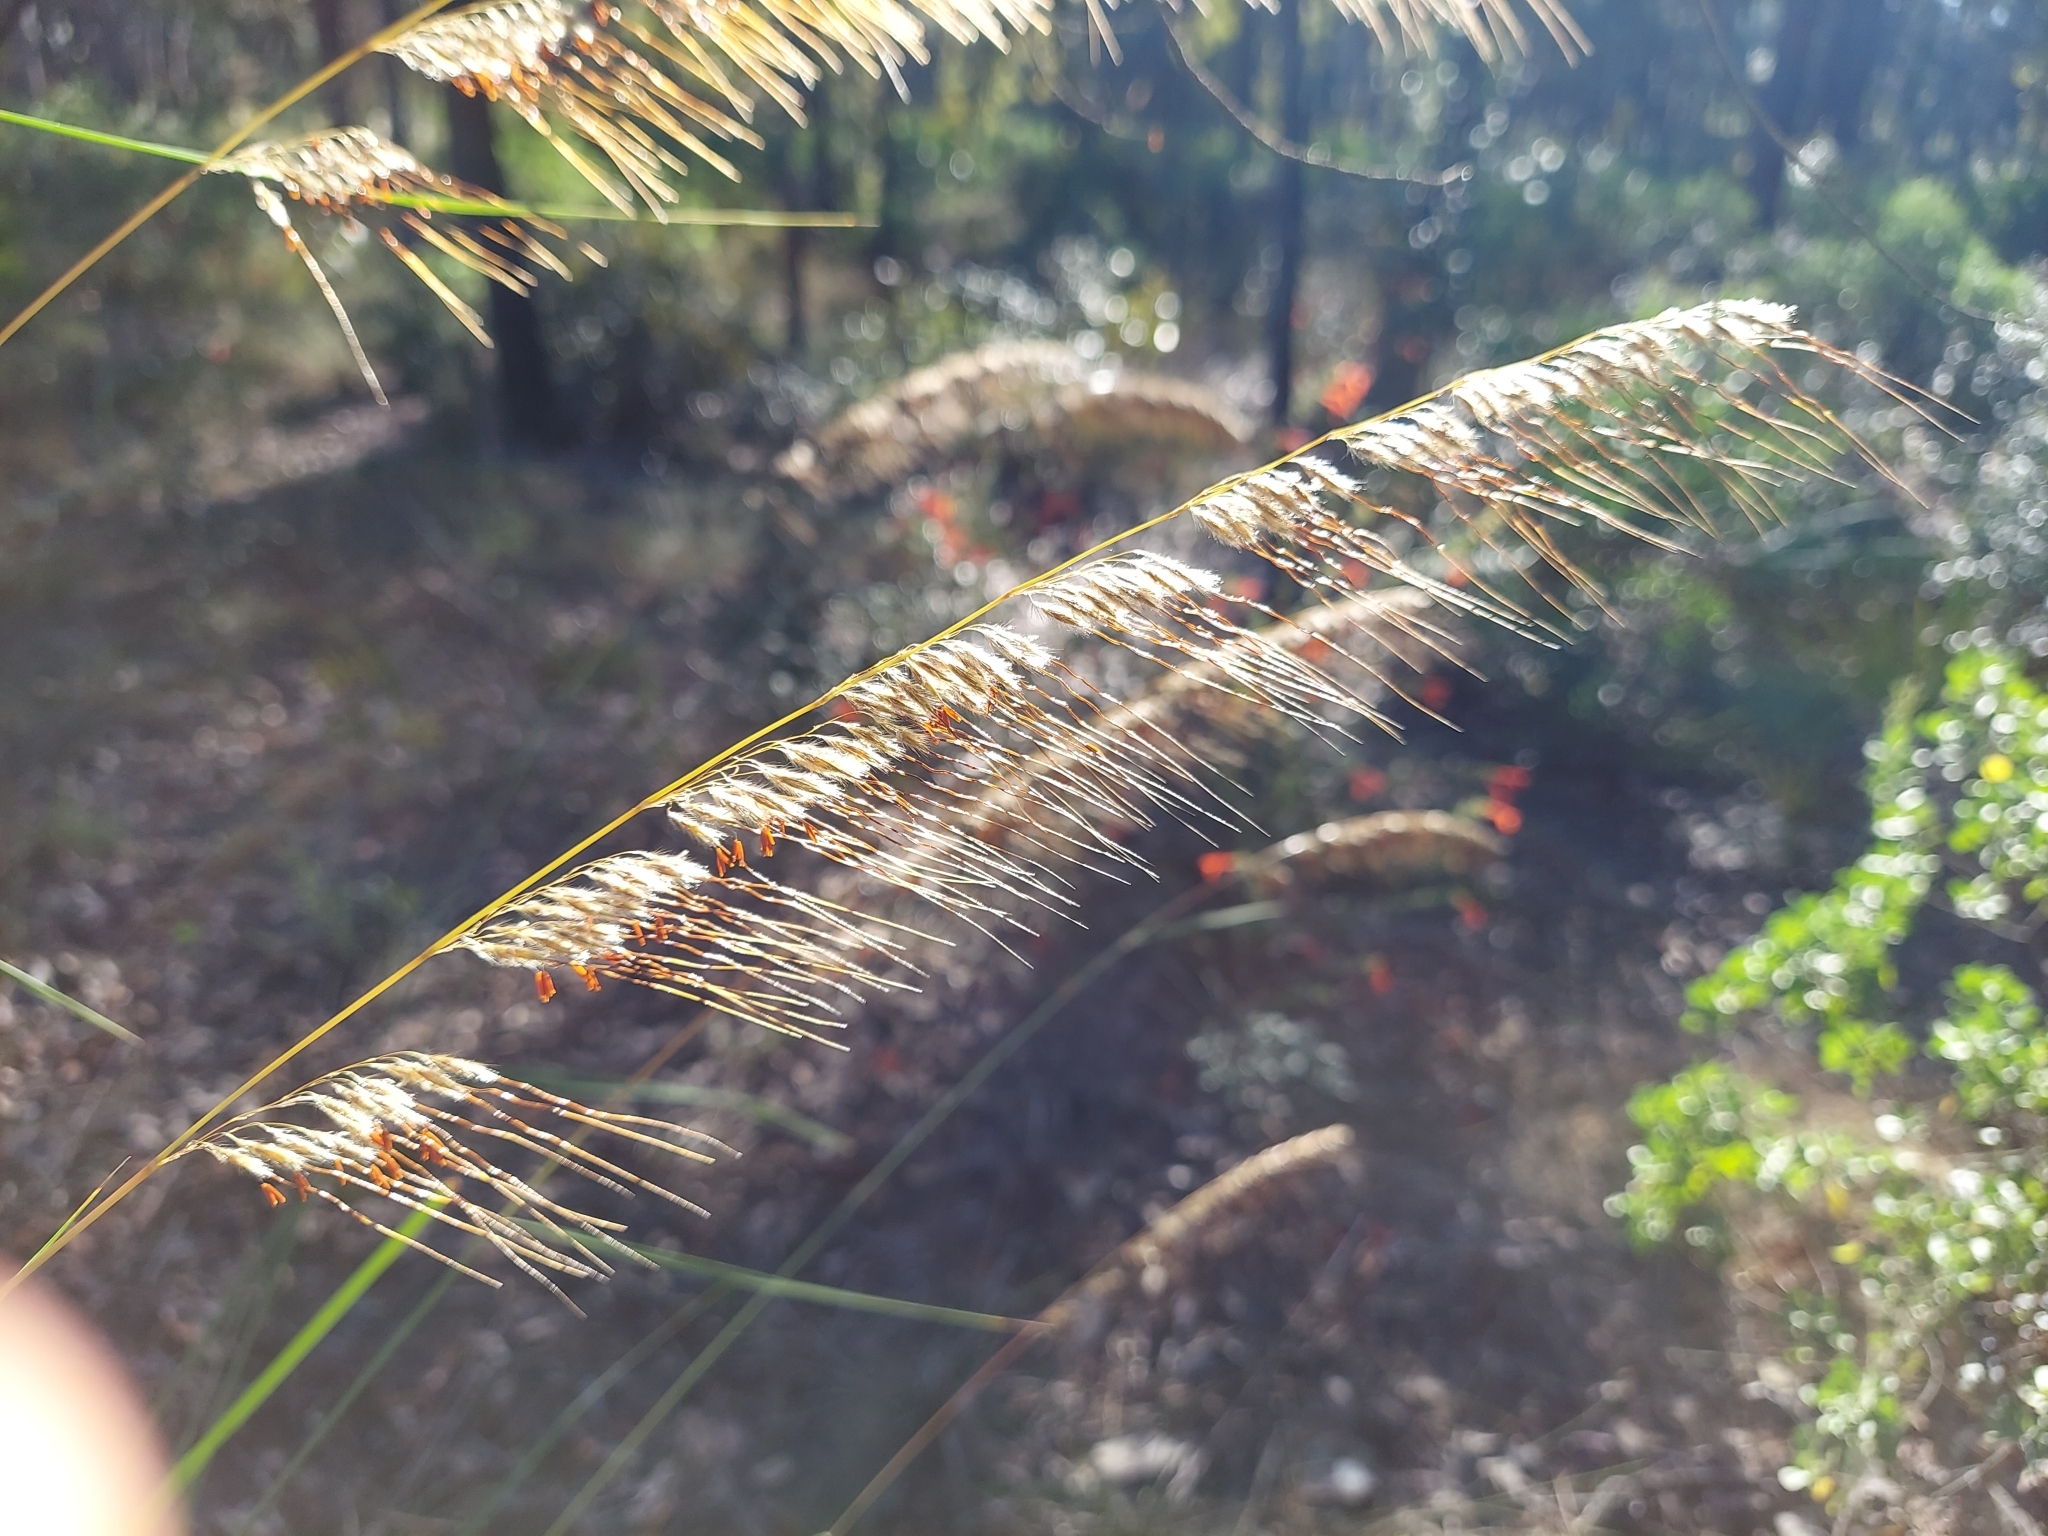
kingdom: Plantae
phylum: Tracheophyta
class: Liliopsida
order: Poales
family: Poaceae
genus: Sorghastrum
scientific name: Sorghastrum secundum
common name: Lopsided indian grass
